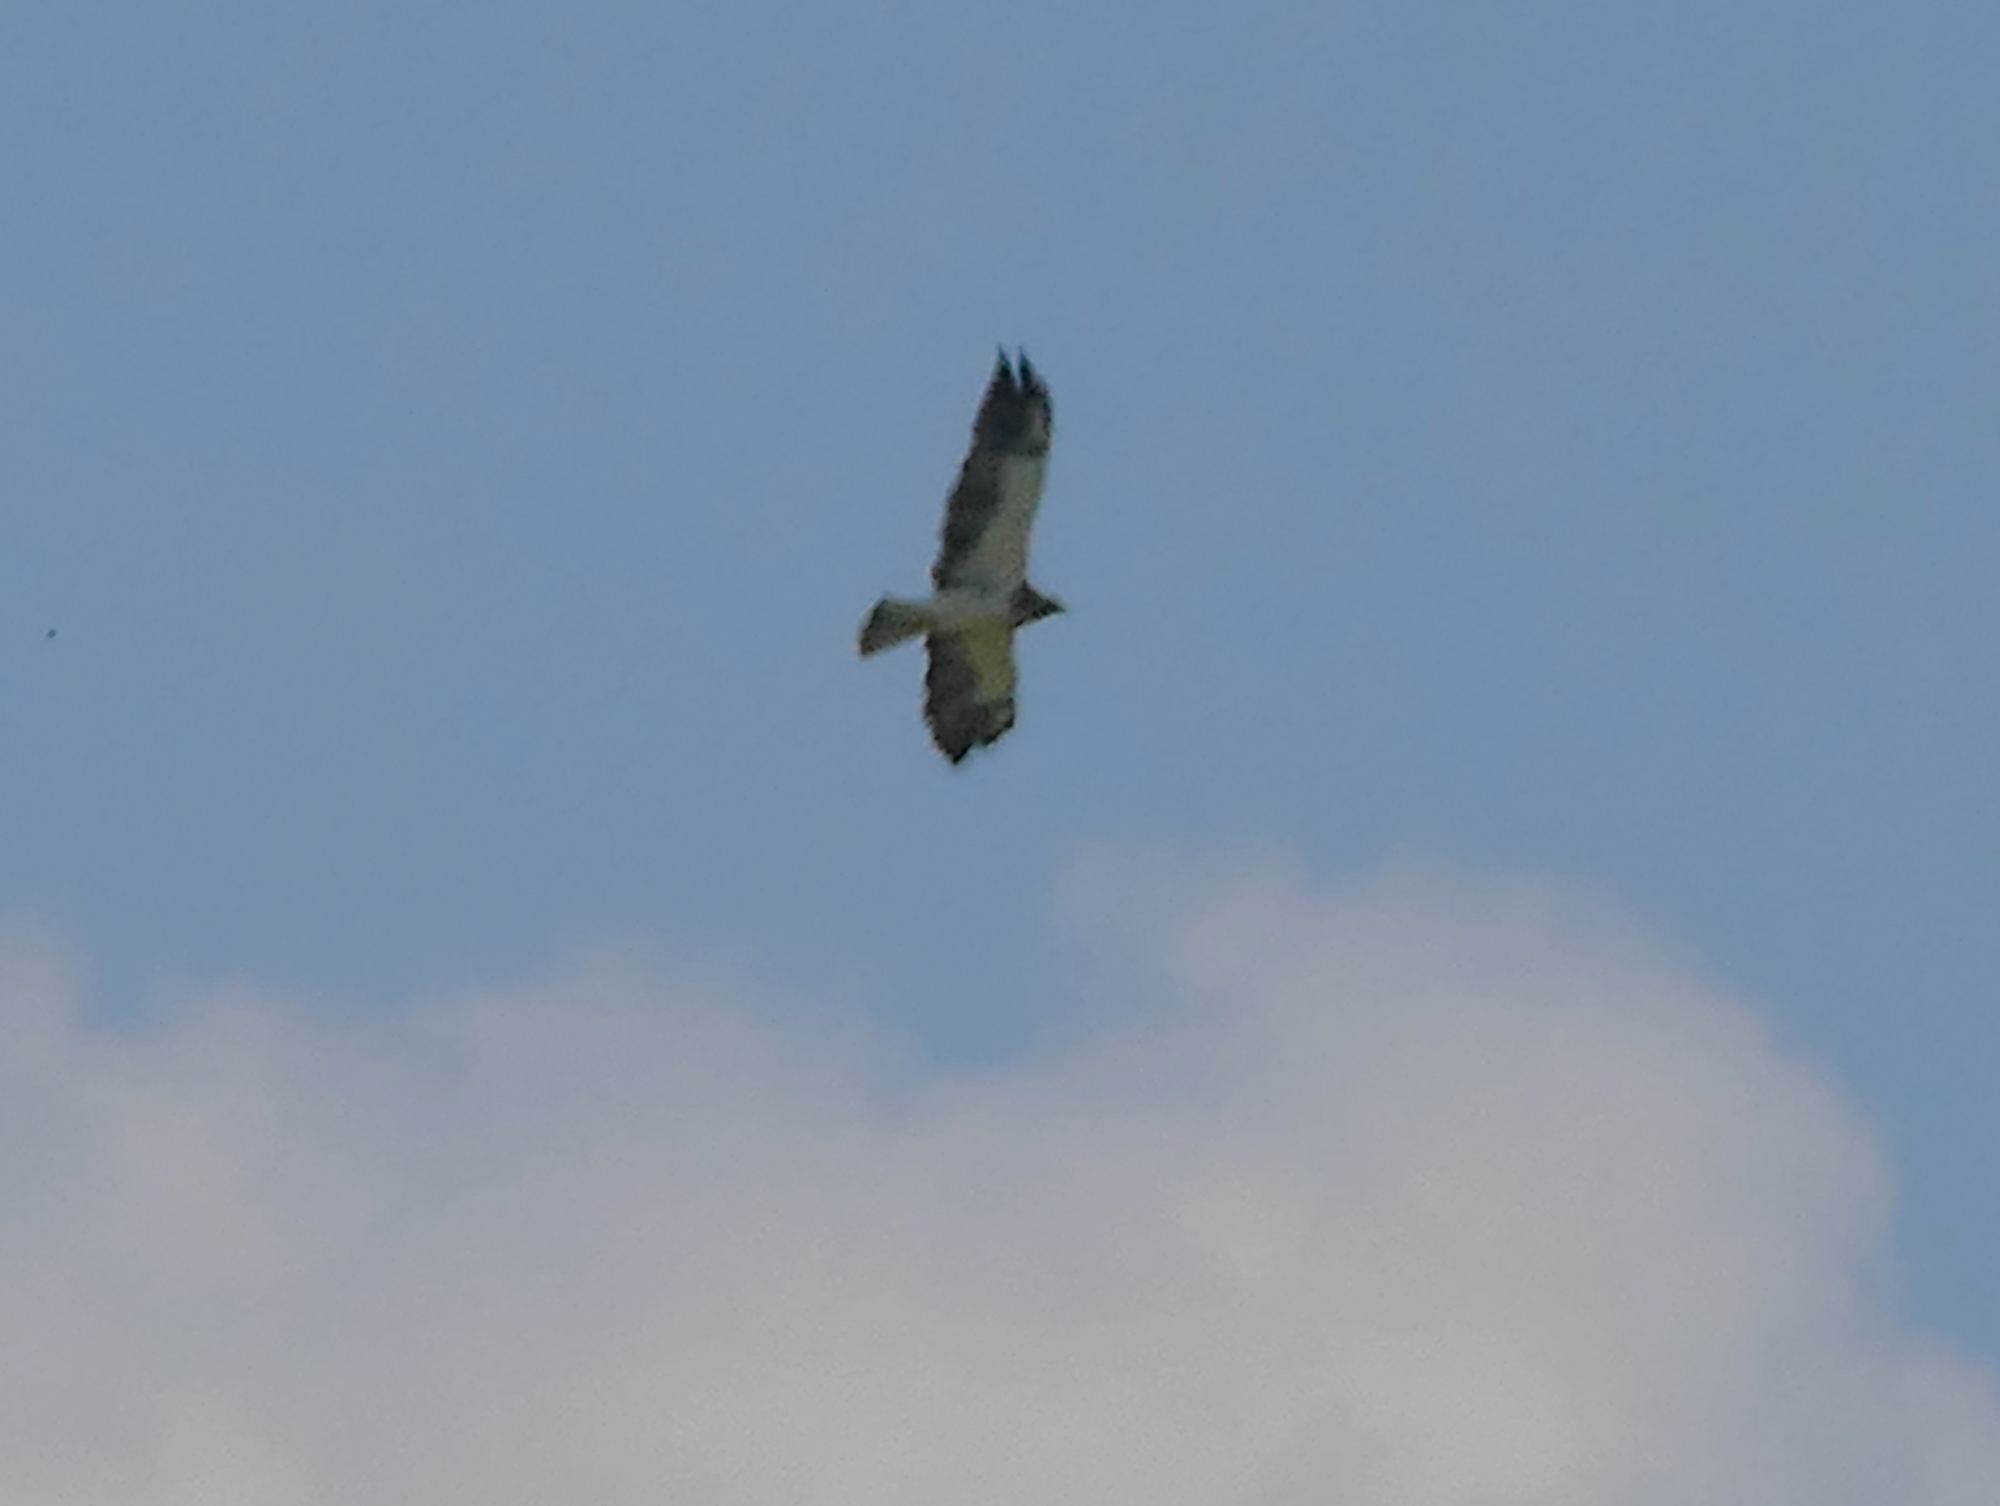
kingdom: Animalia
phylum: Chordata
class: Aves
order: Accipitriformes
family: Accipitridae
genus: Buteo
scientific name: Buteo swainsoni
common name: Swainson's hawk
